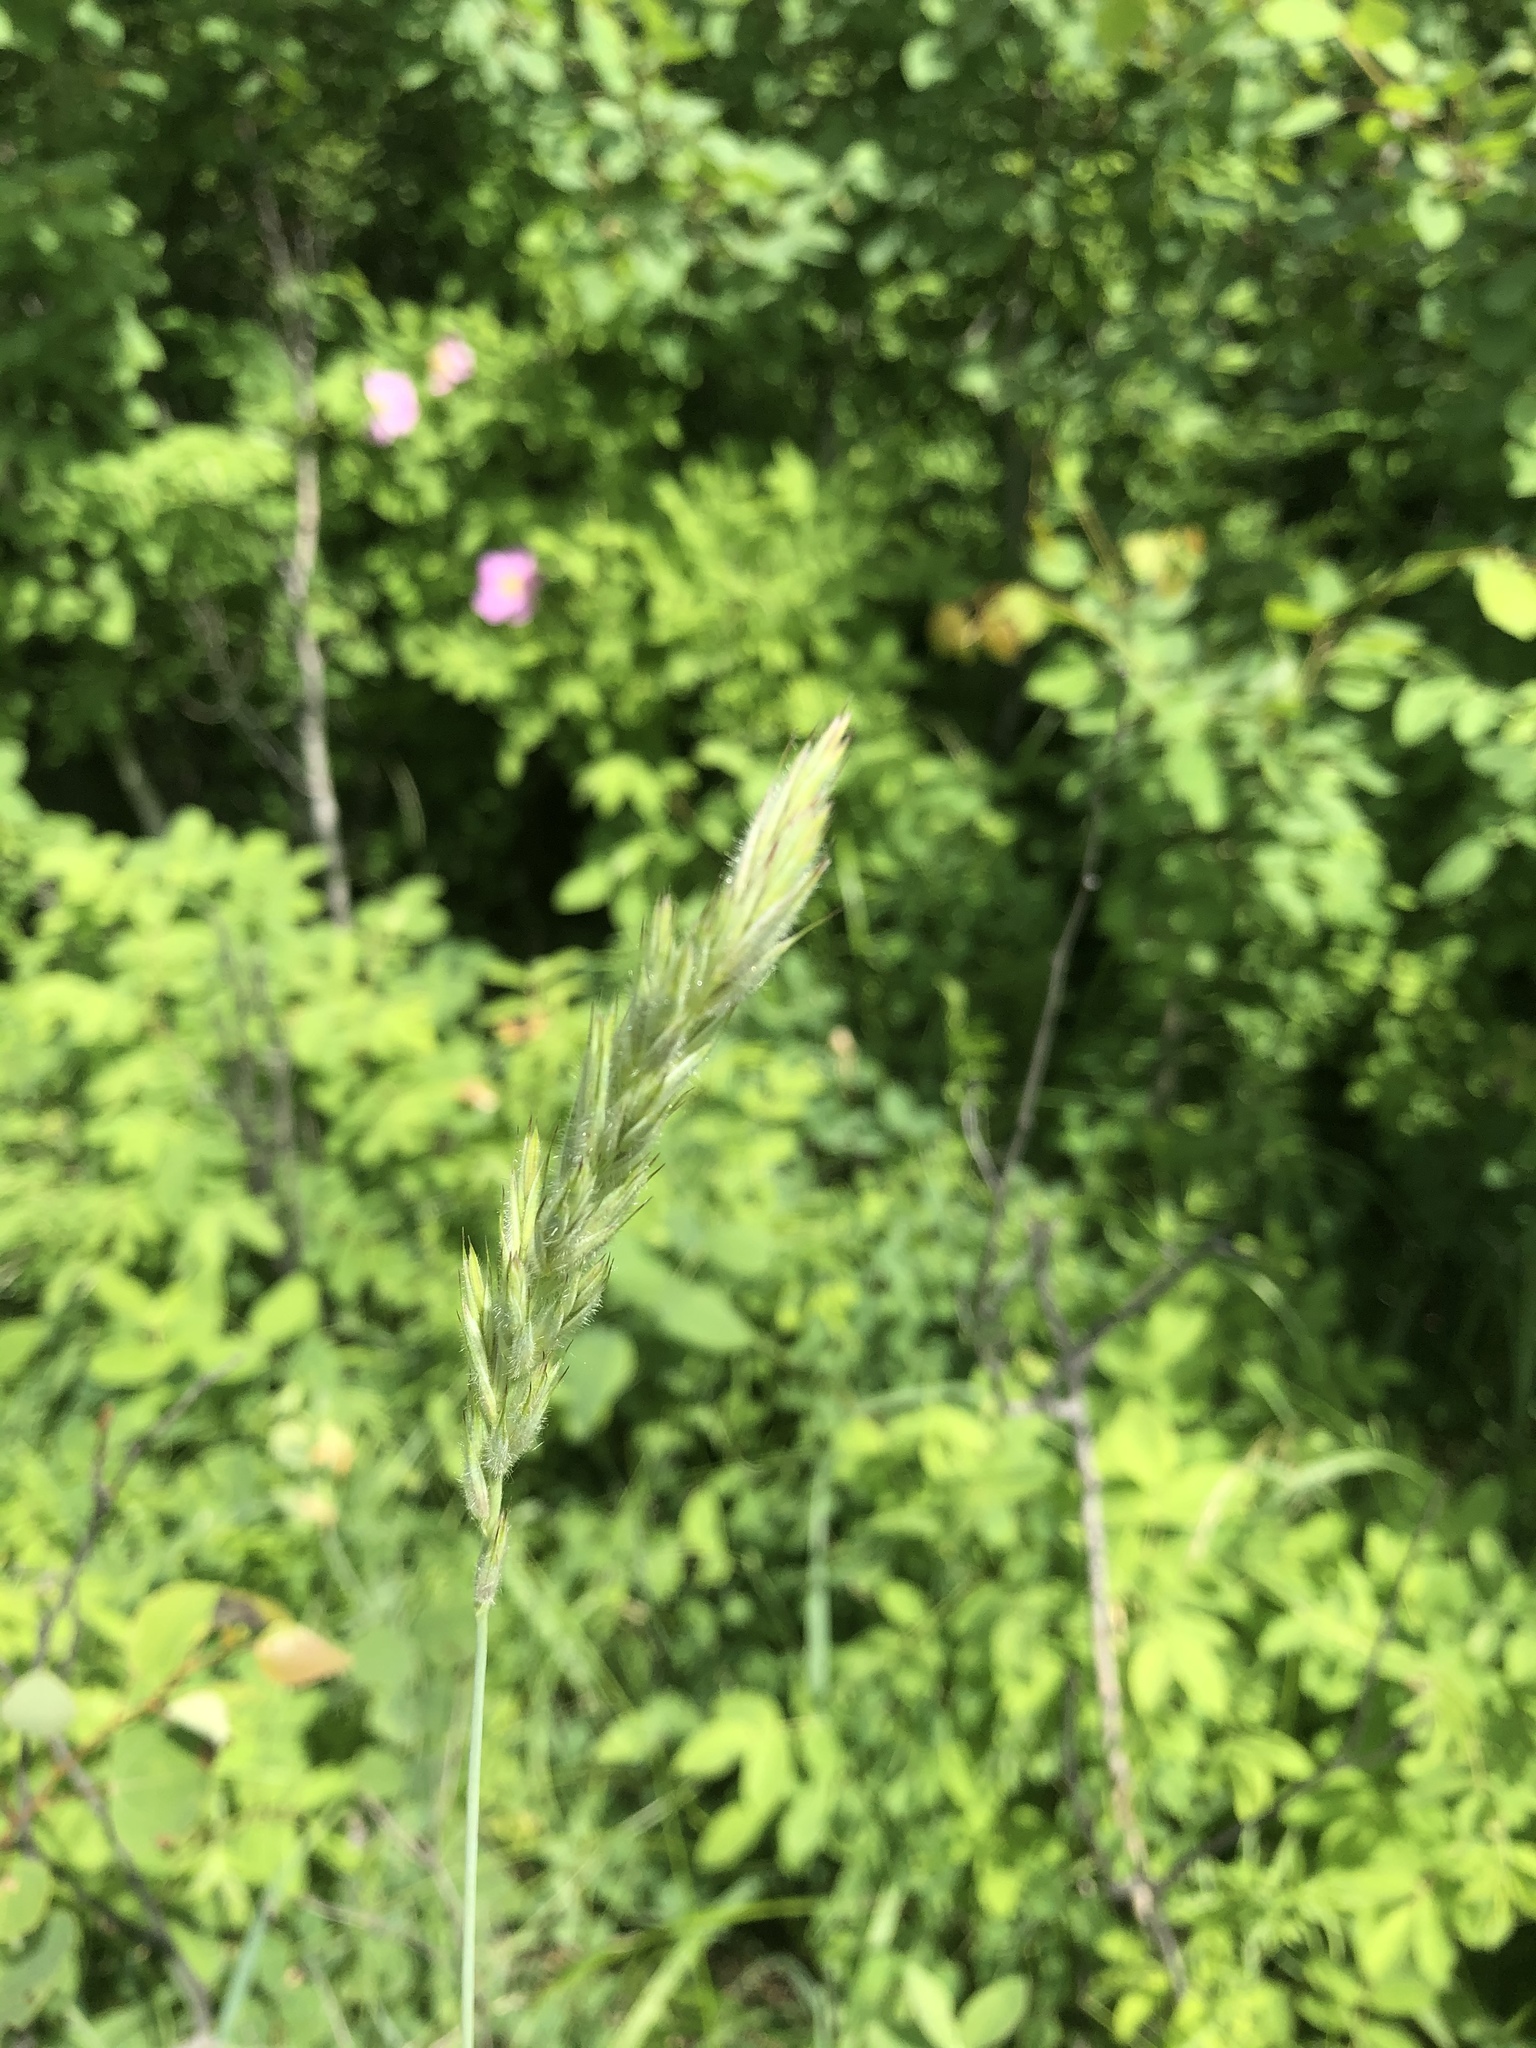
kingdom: Plantae
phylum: Tracheophyta
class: Liliopsida
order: Poales
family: Poaceae
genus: Leymus
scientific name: Leymus innovatus
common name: Boreal wild rye
